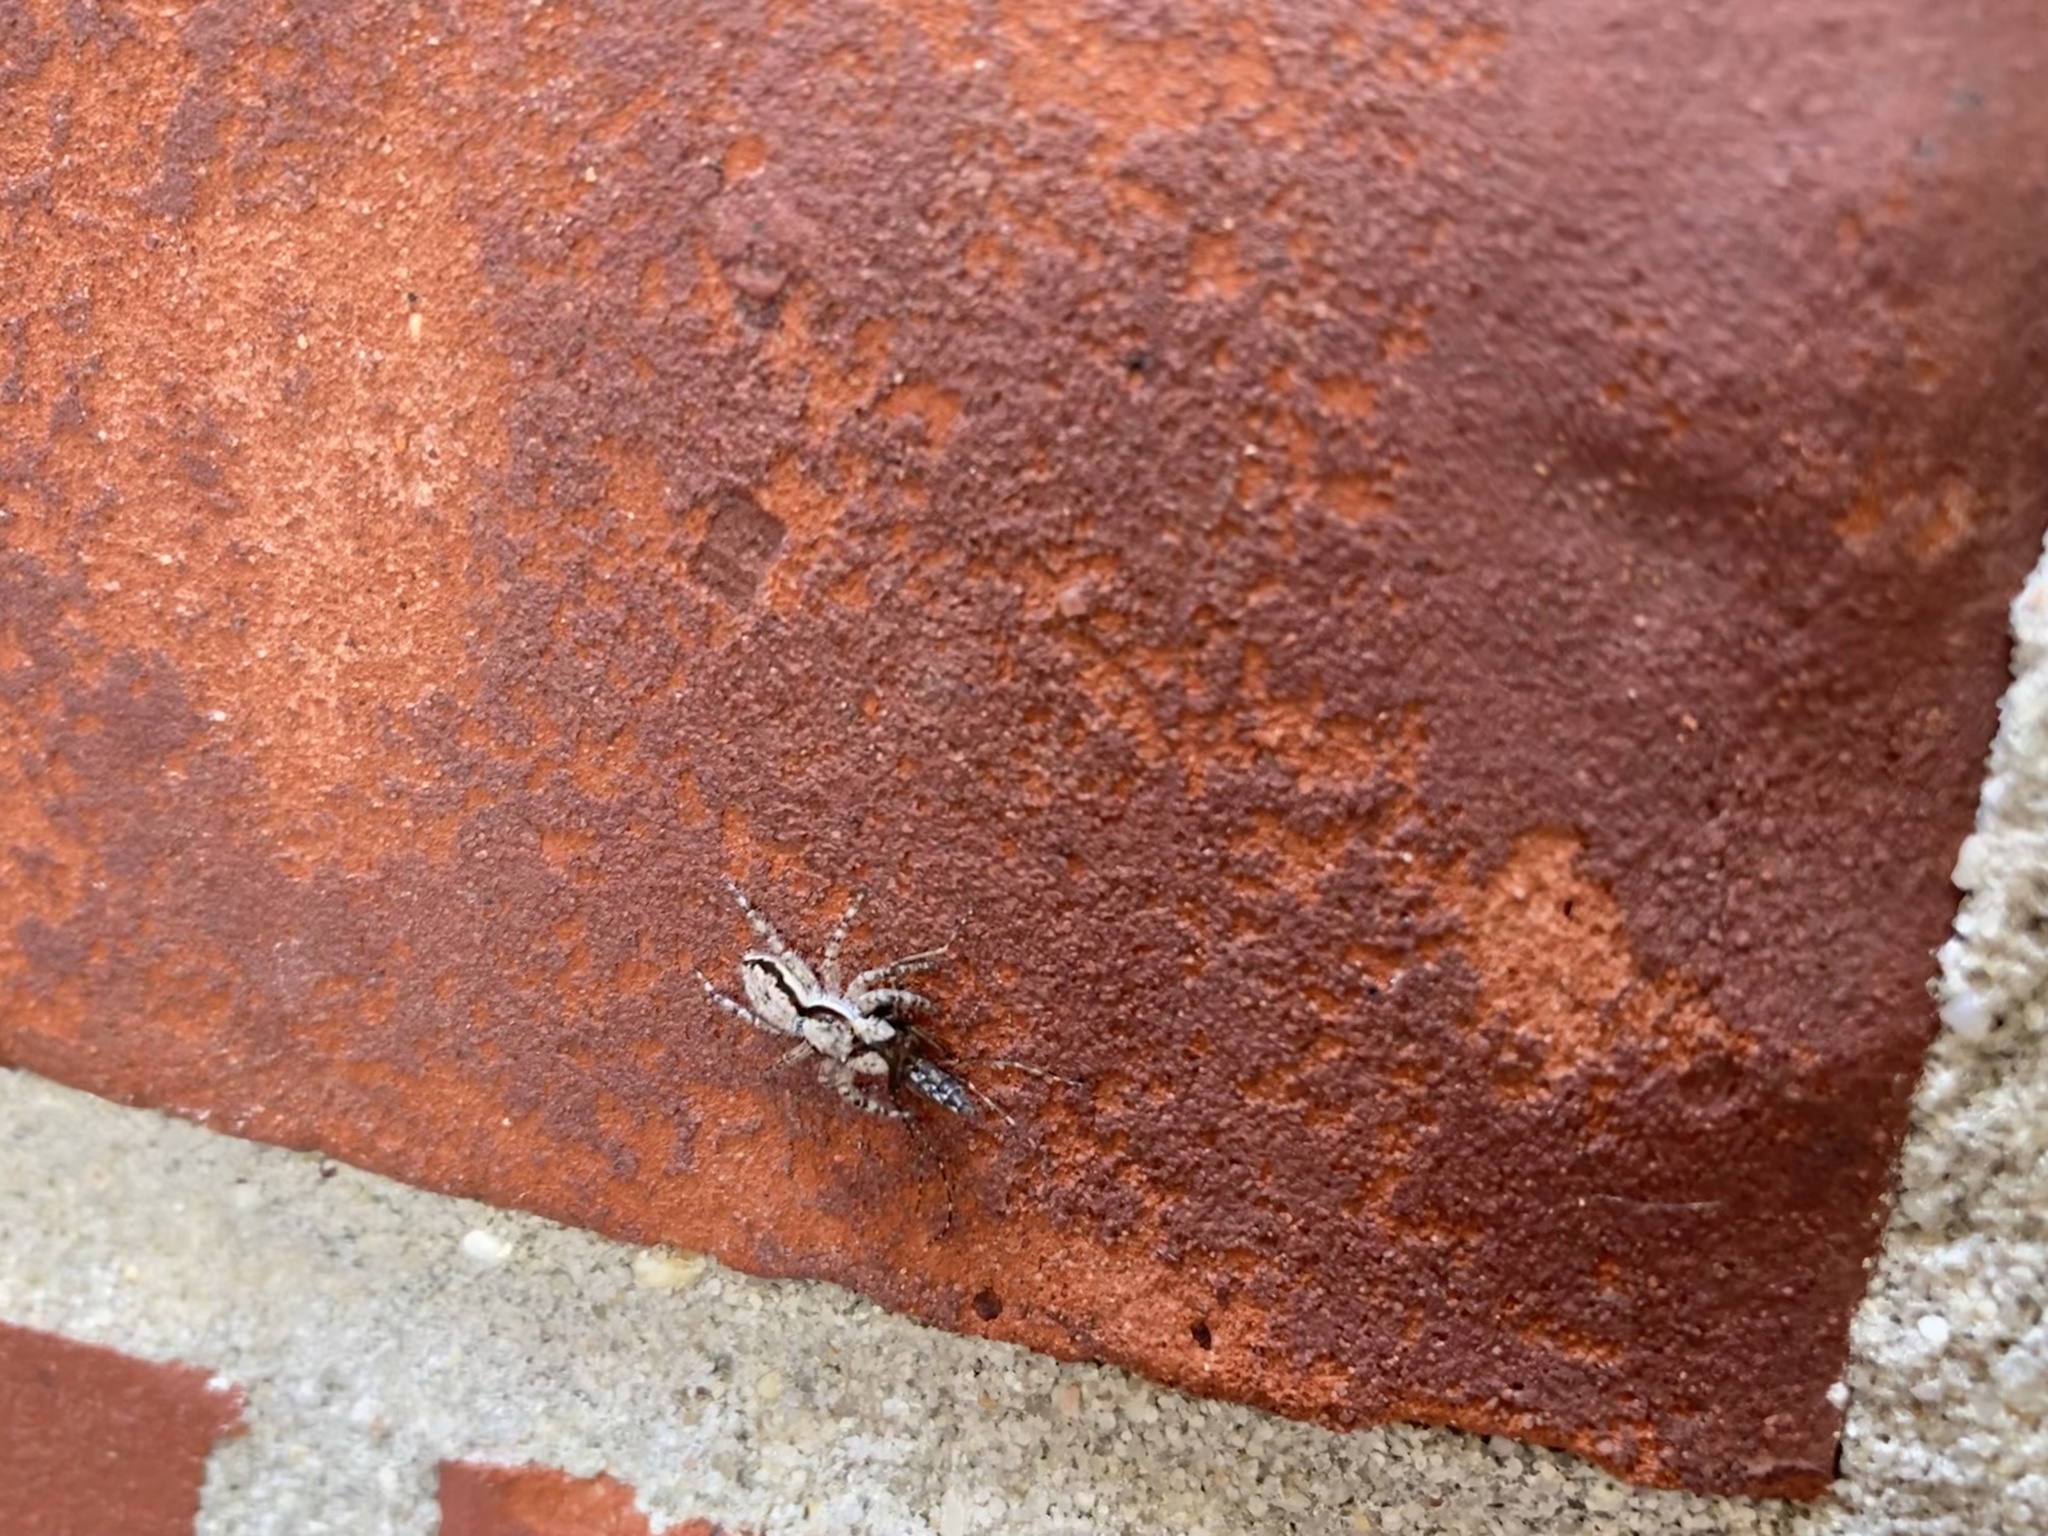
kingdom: Animalia
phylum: Arthropoda
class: Arachnida
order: Araneae
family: Salticidae
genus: Menemerus
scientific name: Menemerus bivittatus
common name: Gray wall jumper
